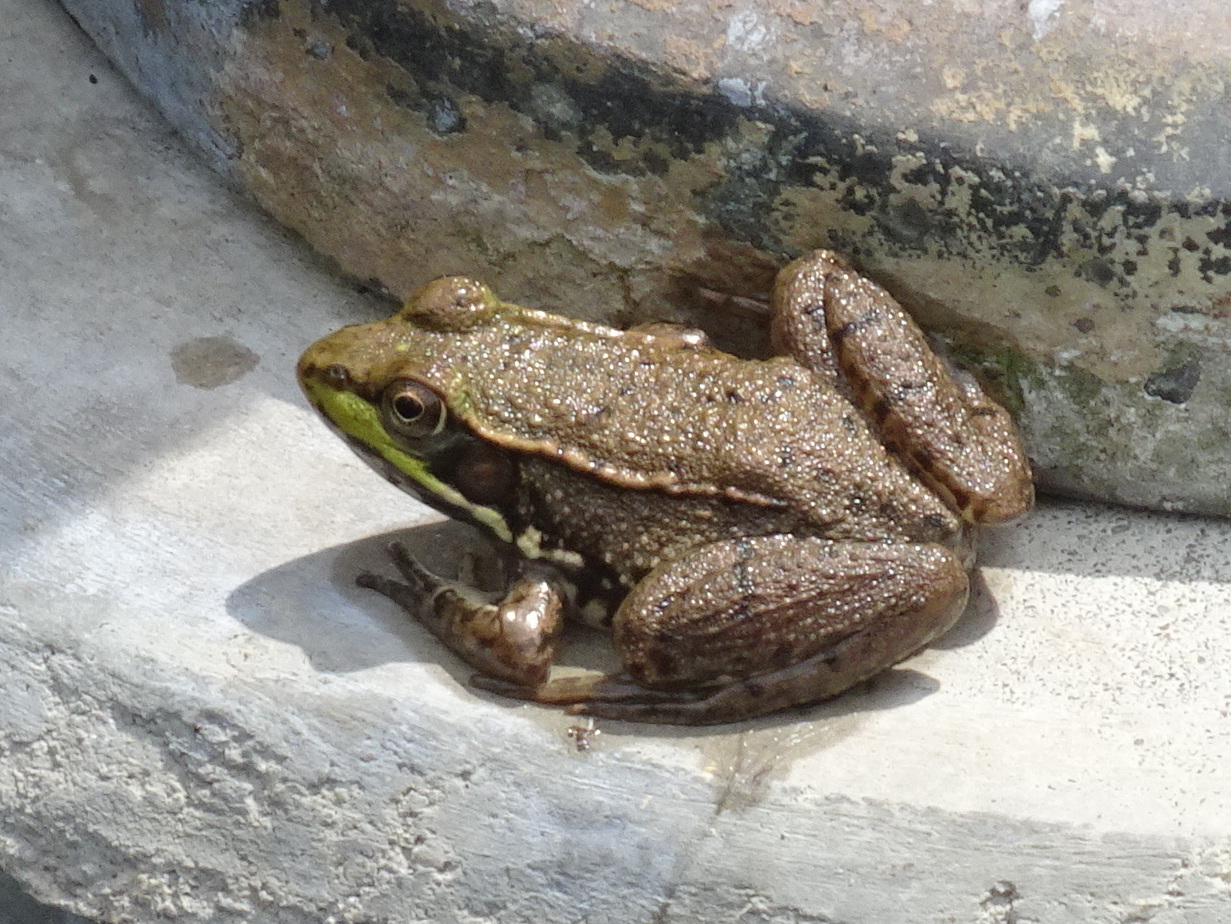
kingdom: Animalia
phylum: Chordata
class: Amphibia
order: Anura
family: Ranidae
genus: Lithobates
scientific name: Lithobates clamitans
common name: Green frog
